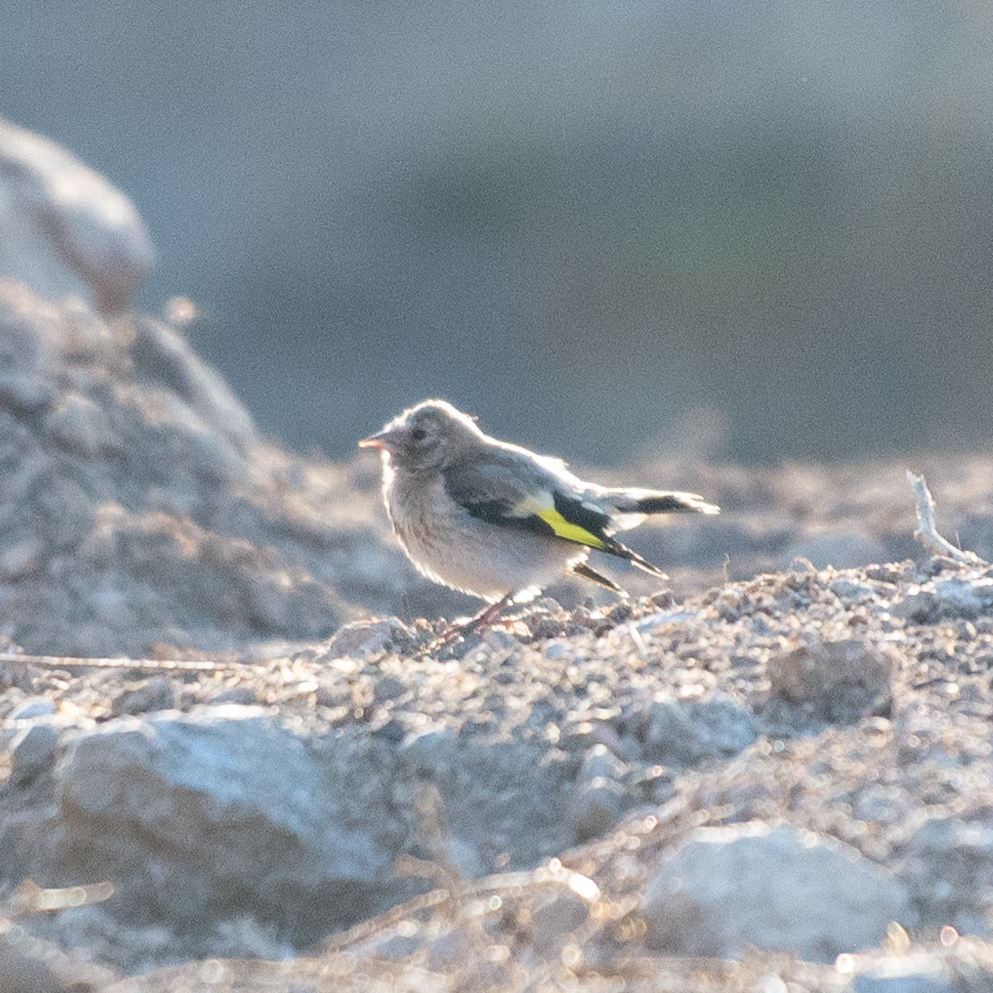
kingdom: Animalia
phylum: Chordata
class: Aves
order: Passeriformes
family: Fringillidae
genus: Carduelis
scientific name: Carduelis carduelis
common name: European goldfinch
